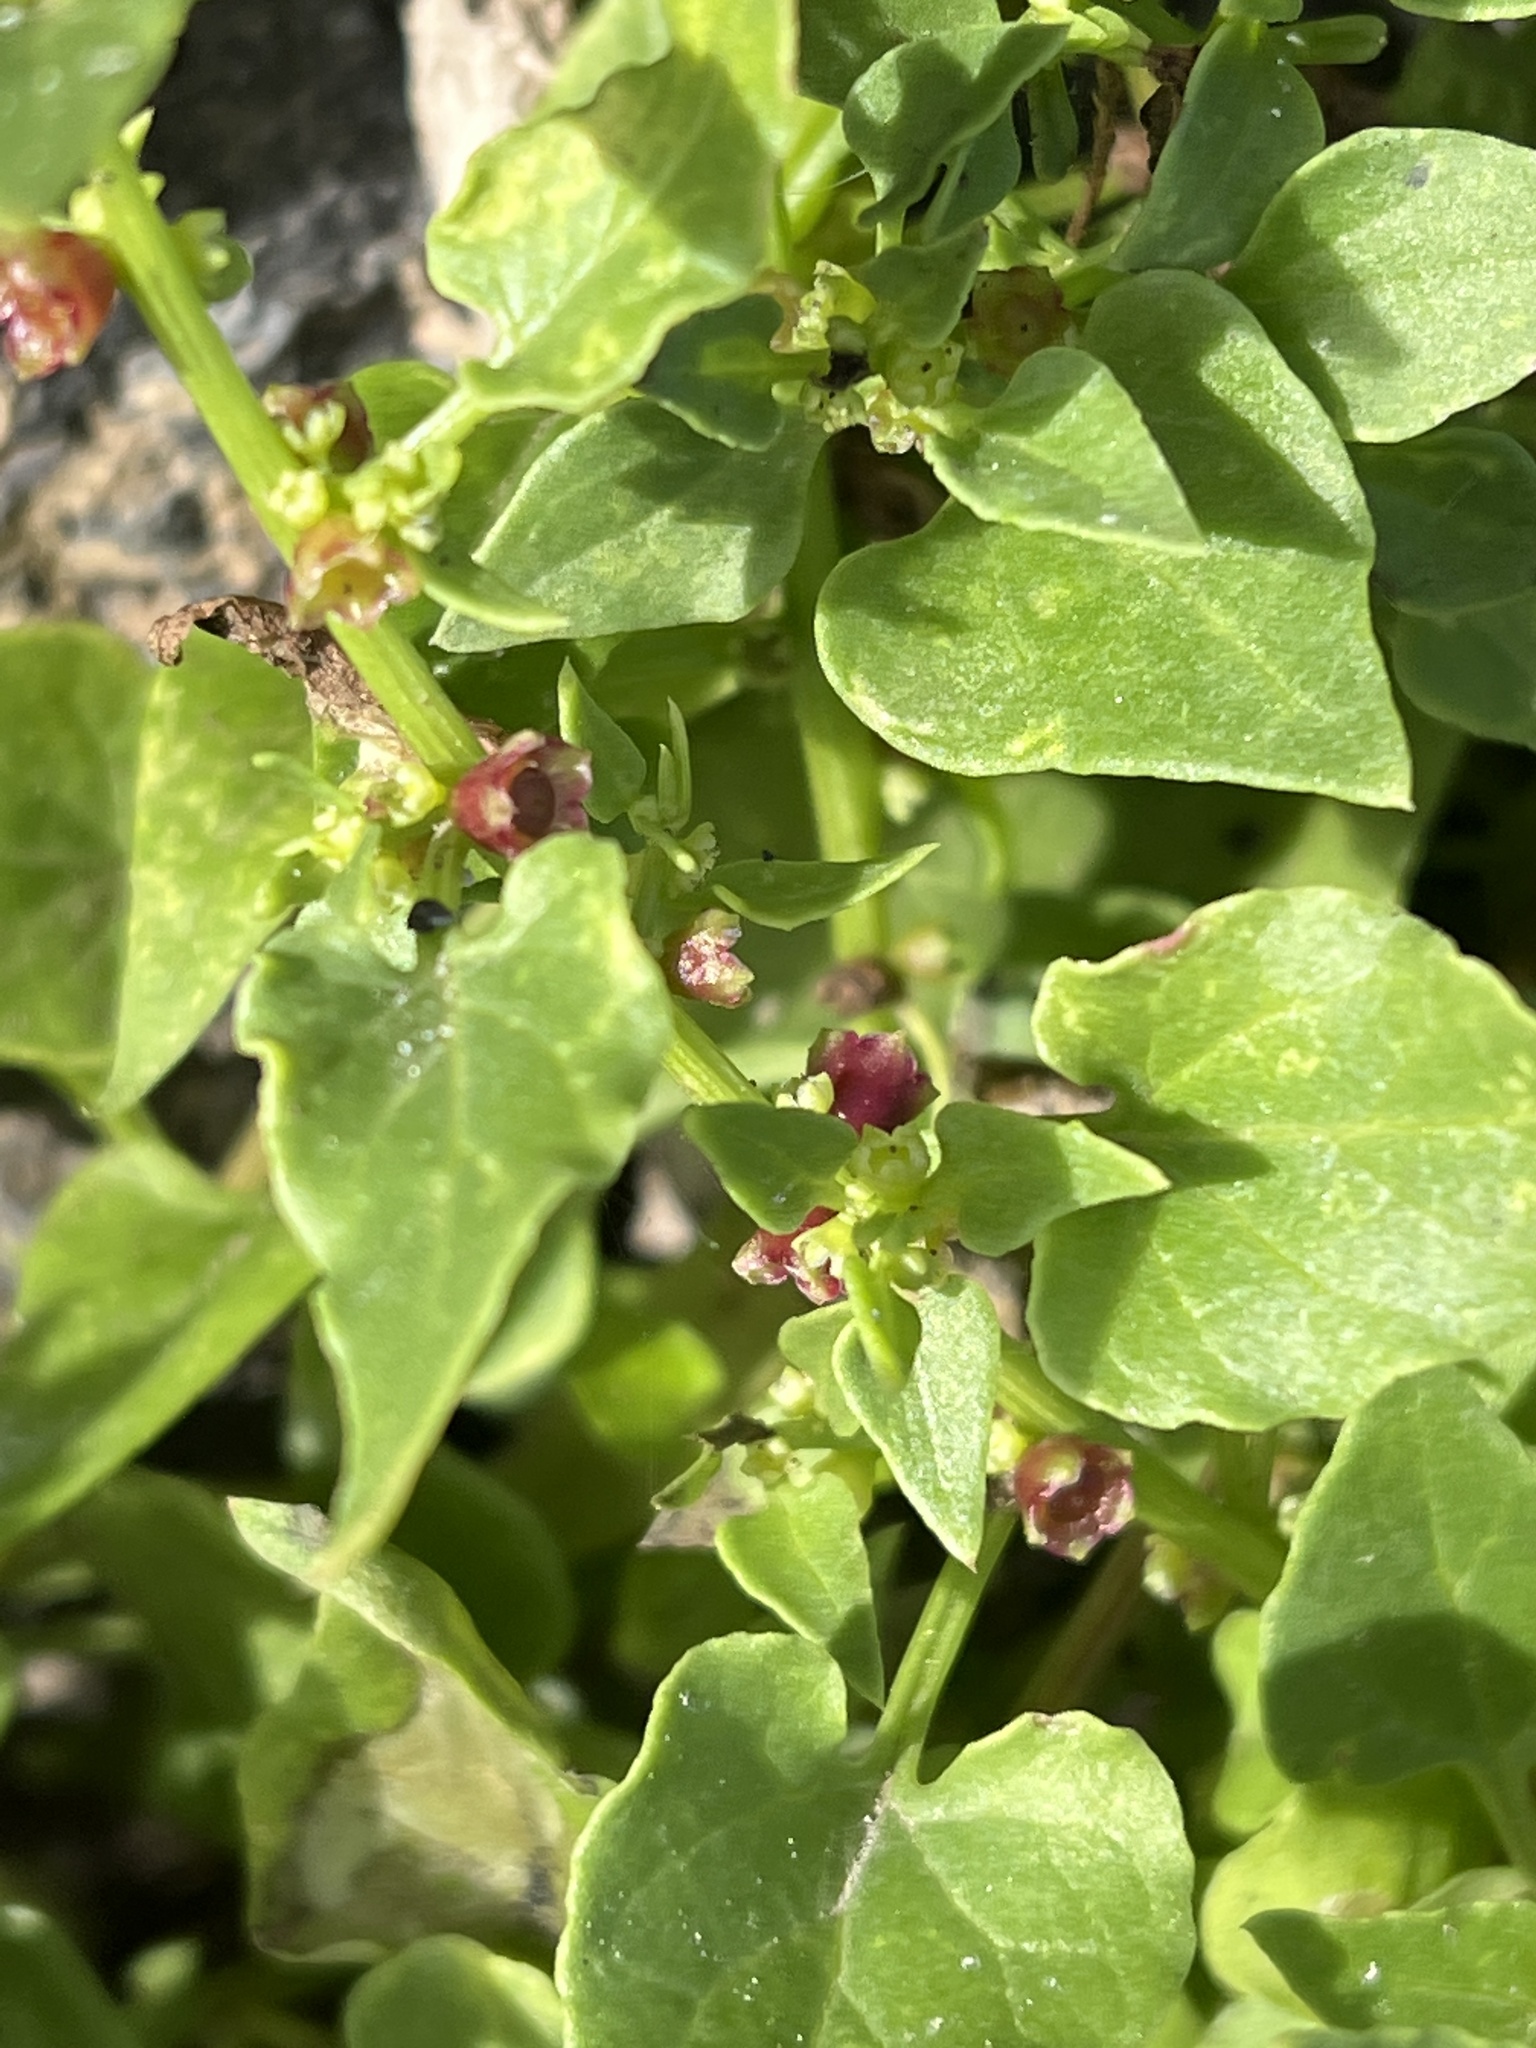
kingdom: Plantae
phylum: Tracheophyta
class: Magnoliopsida
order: Caryophyllales
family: Amaranthaceae
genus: Patellifolia
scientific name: Patellifolia procumbens
